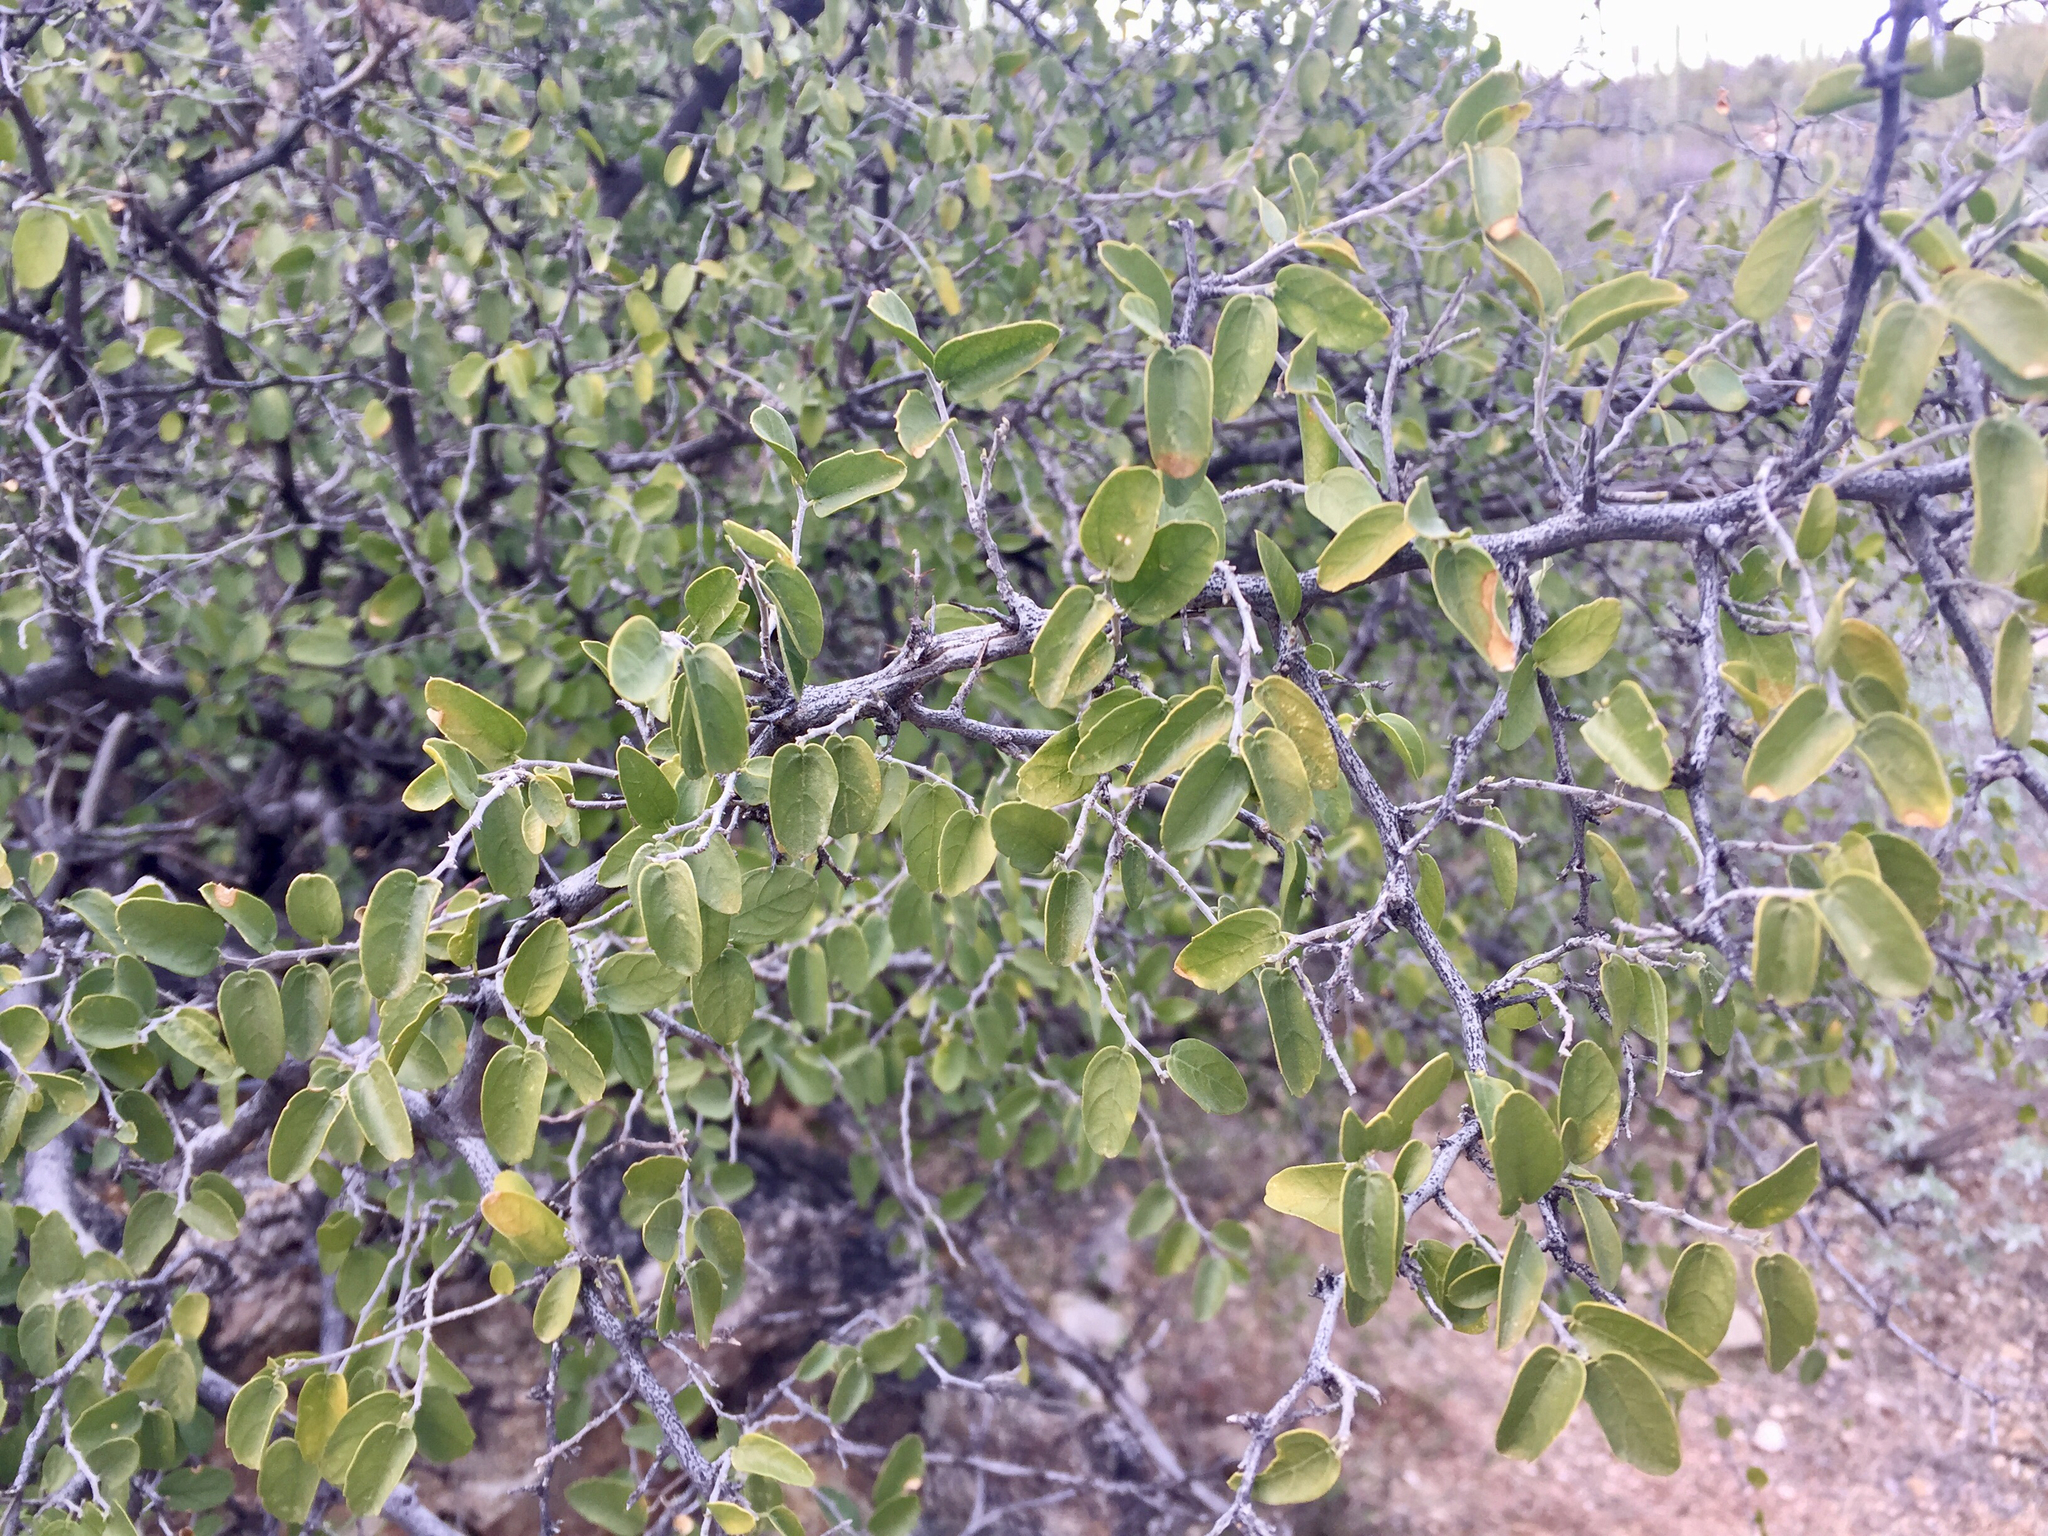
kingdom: Plantae
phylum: Tracheophyta
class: Magnoliopsida
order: Rosales
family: Cannabaceae
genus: Celtis
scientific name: Celtis pallida
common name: Desert hackberry
